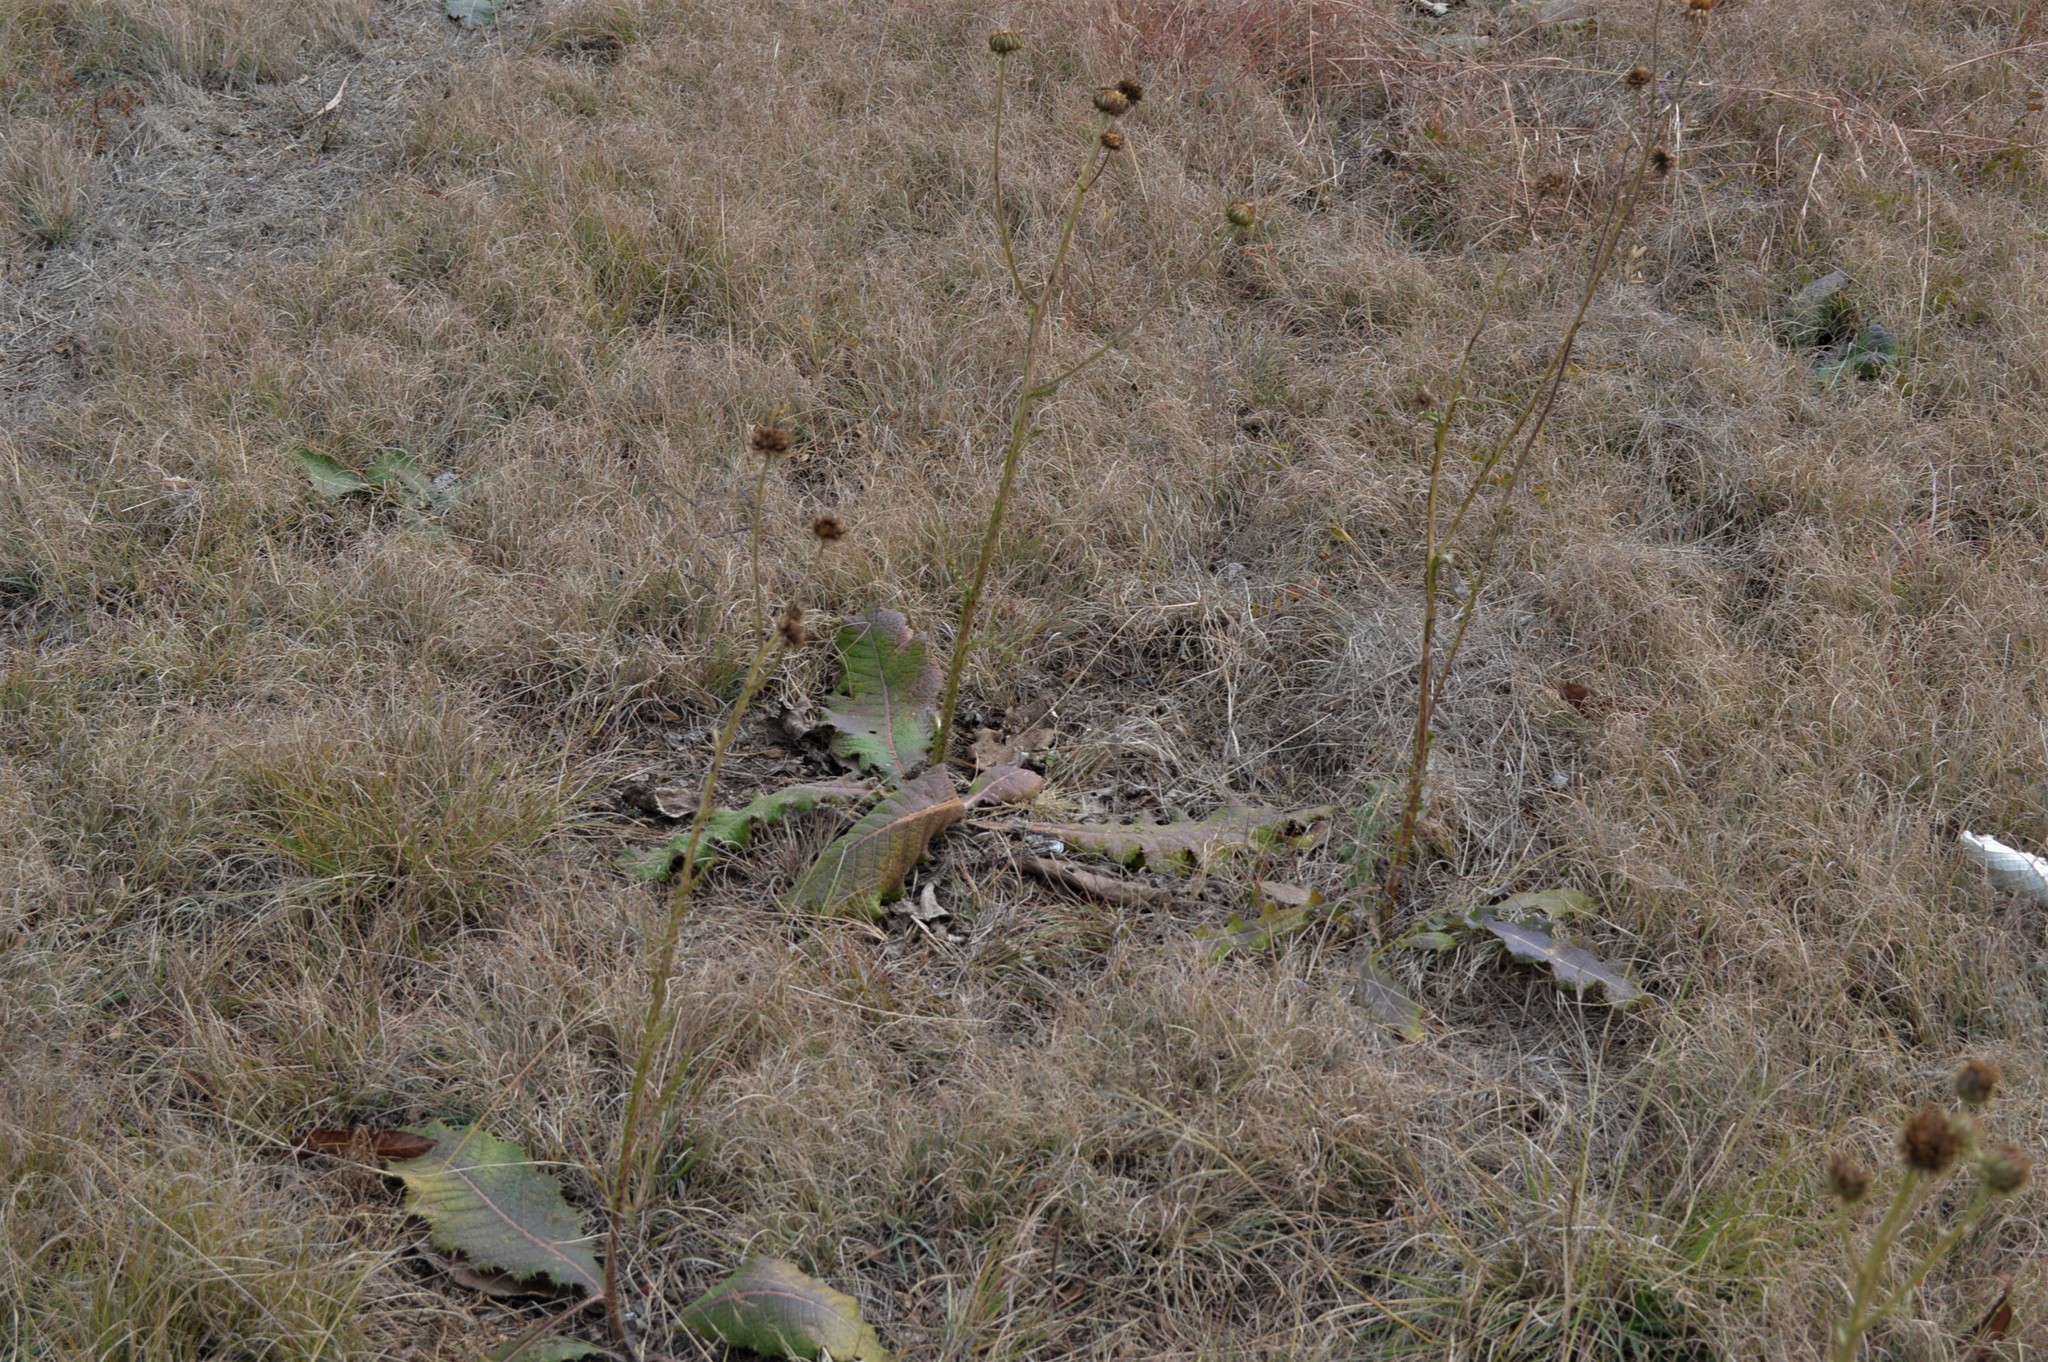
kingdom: Plantae
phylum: Tracheophyta
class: Magnoliopsida
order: Asterales
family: Asteraceae
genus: Berkheya
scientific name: Berkheya radula
